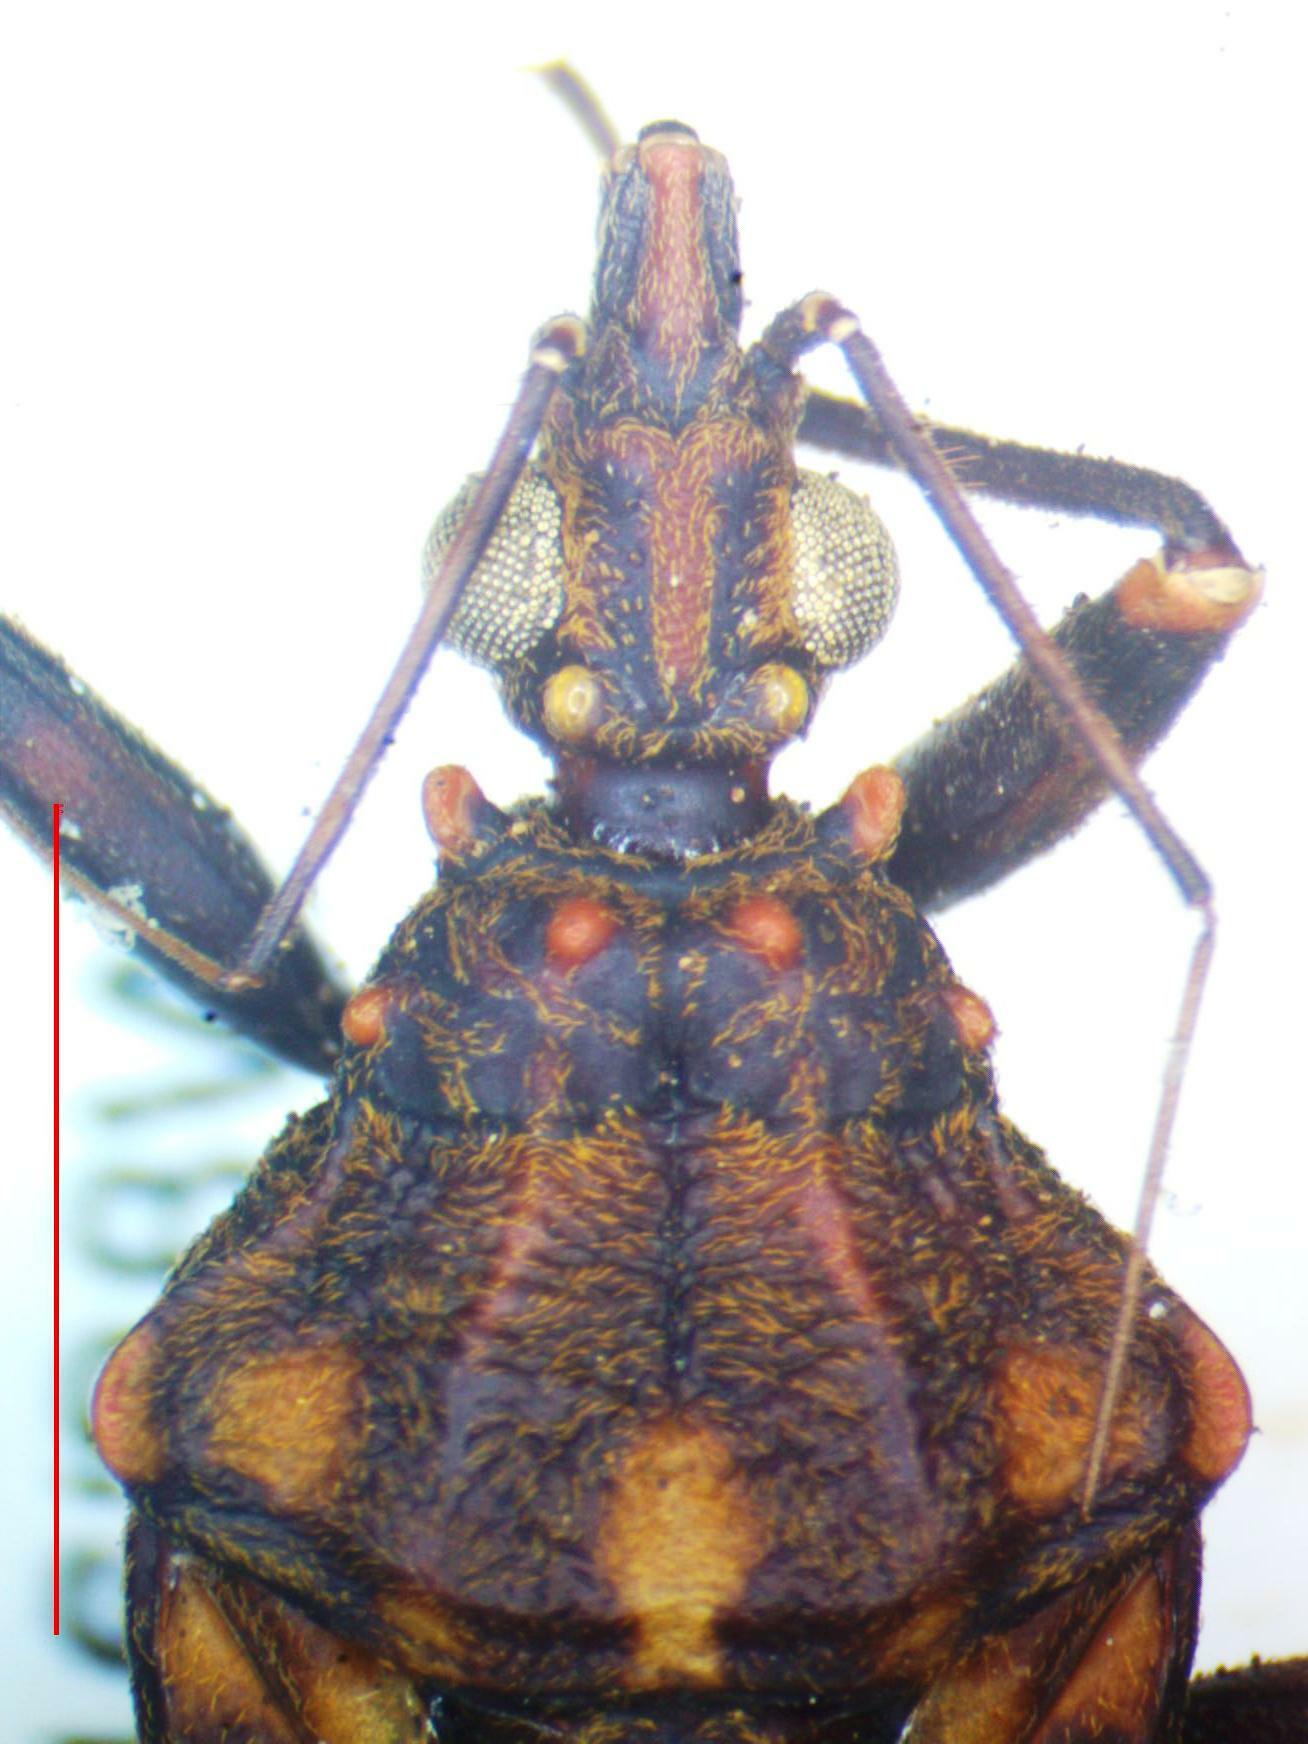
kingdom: Animalia
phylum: Arthropoda
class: Insecta
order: Hemiptera
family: Reduviidae
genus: Panstrongylus
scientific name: Panstrongylus rufotuberculatus
